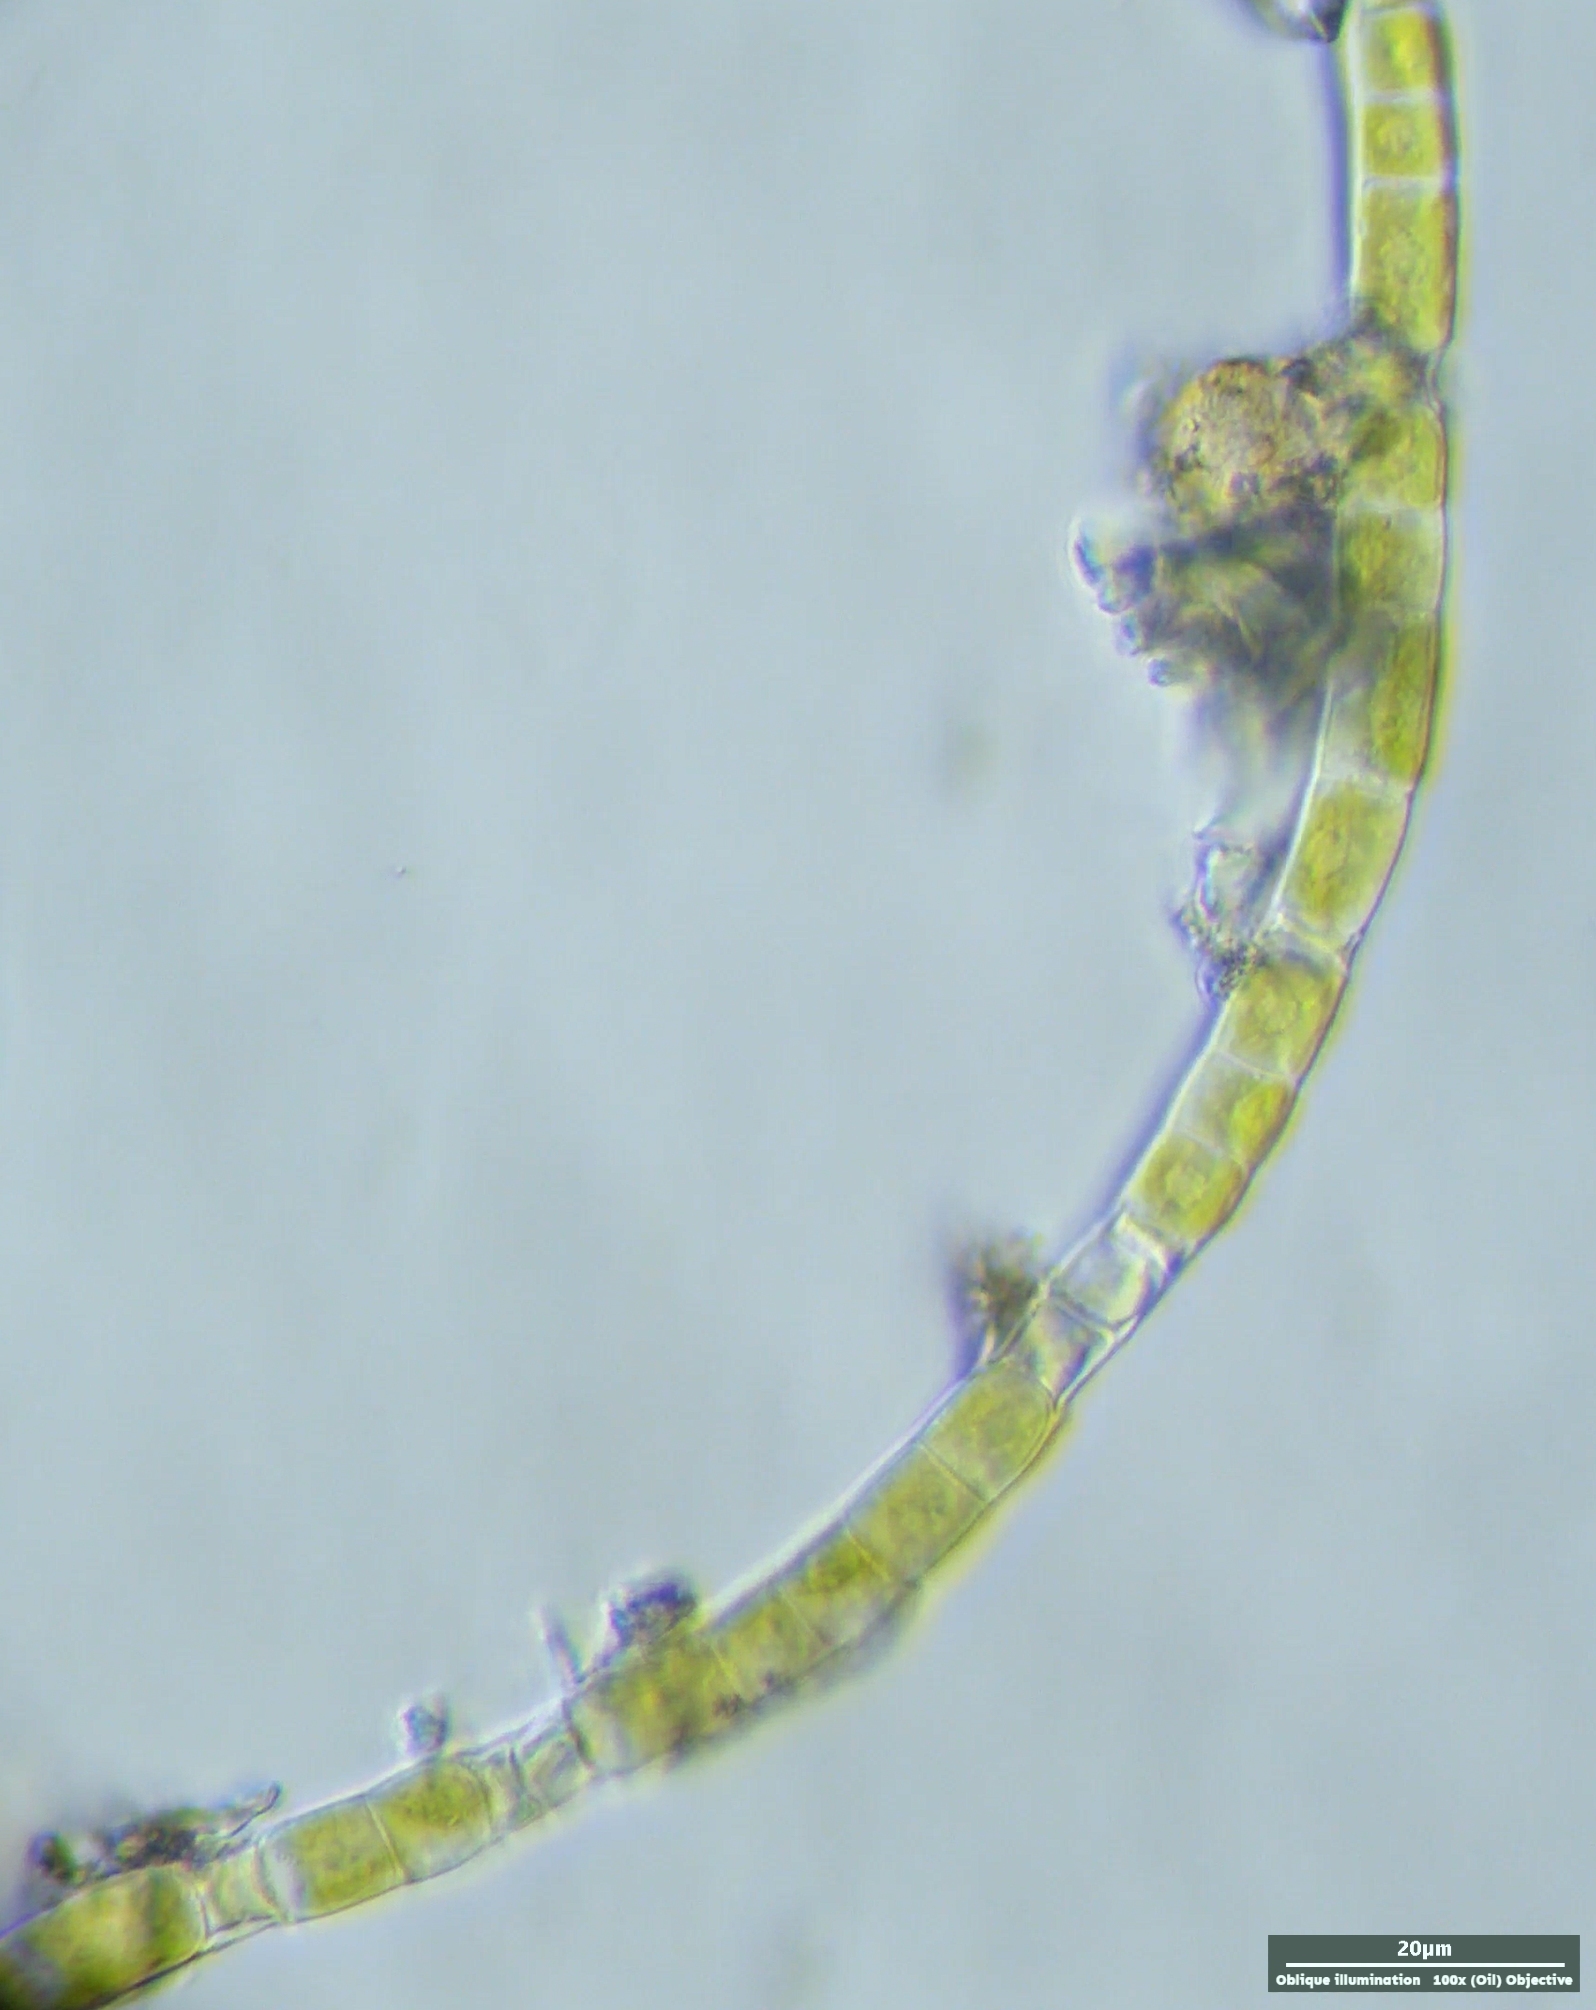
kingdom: Plantae
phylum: Charophyta
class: Klebsormidiophyceae
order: Klebsormidiales
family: Klebsormidiaceae
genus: Klebsormidium
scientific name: Klebsormidium
